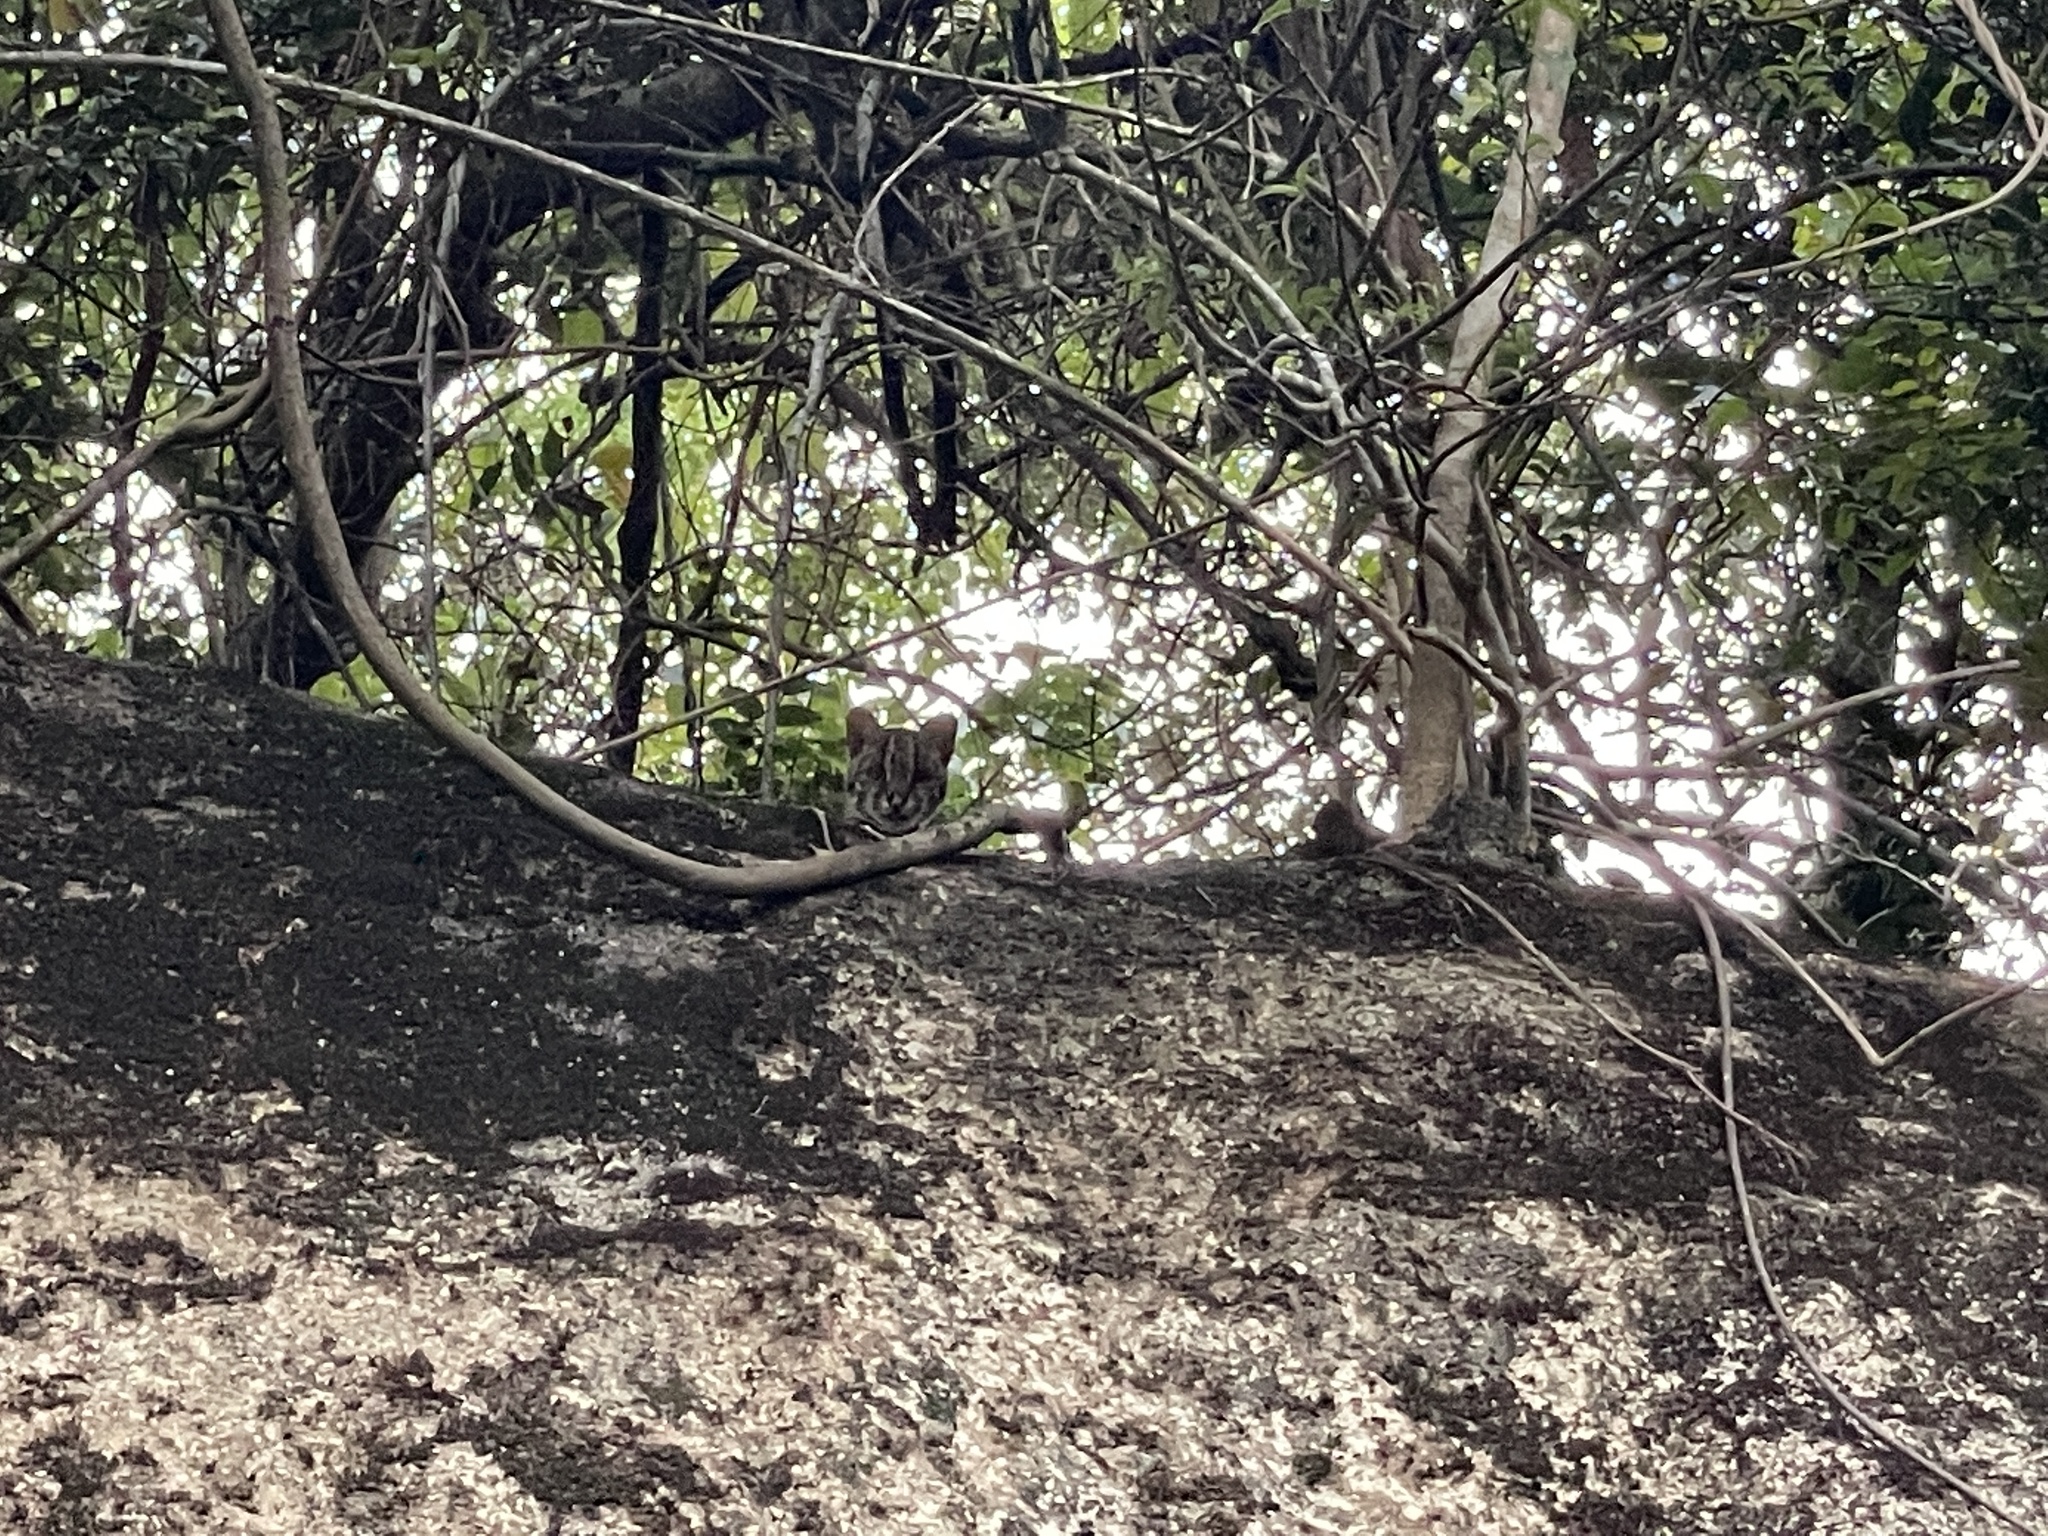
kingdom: Animalia
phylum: Chordata
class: Mammalia
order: Carnivora
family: Felidae
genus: Prionailurus
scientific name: Prionailurus bengalensis
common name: Leopard cat
